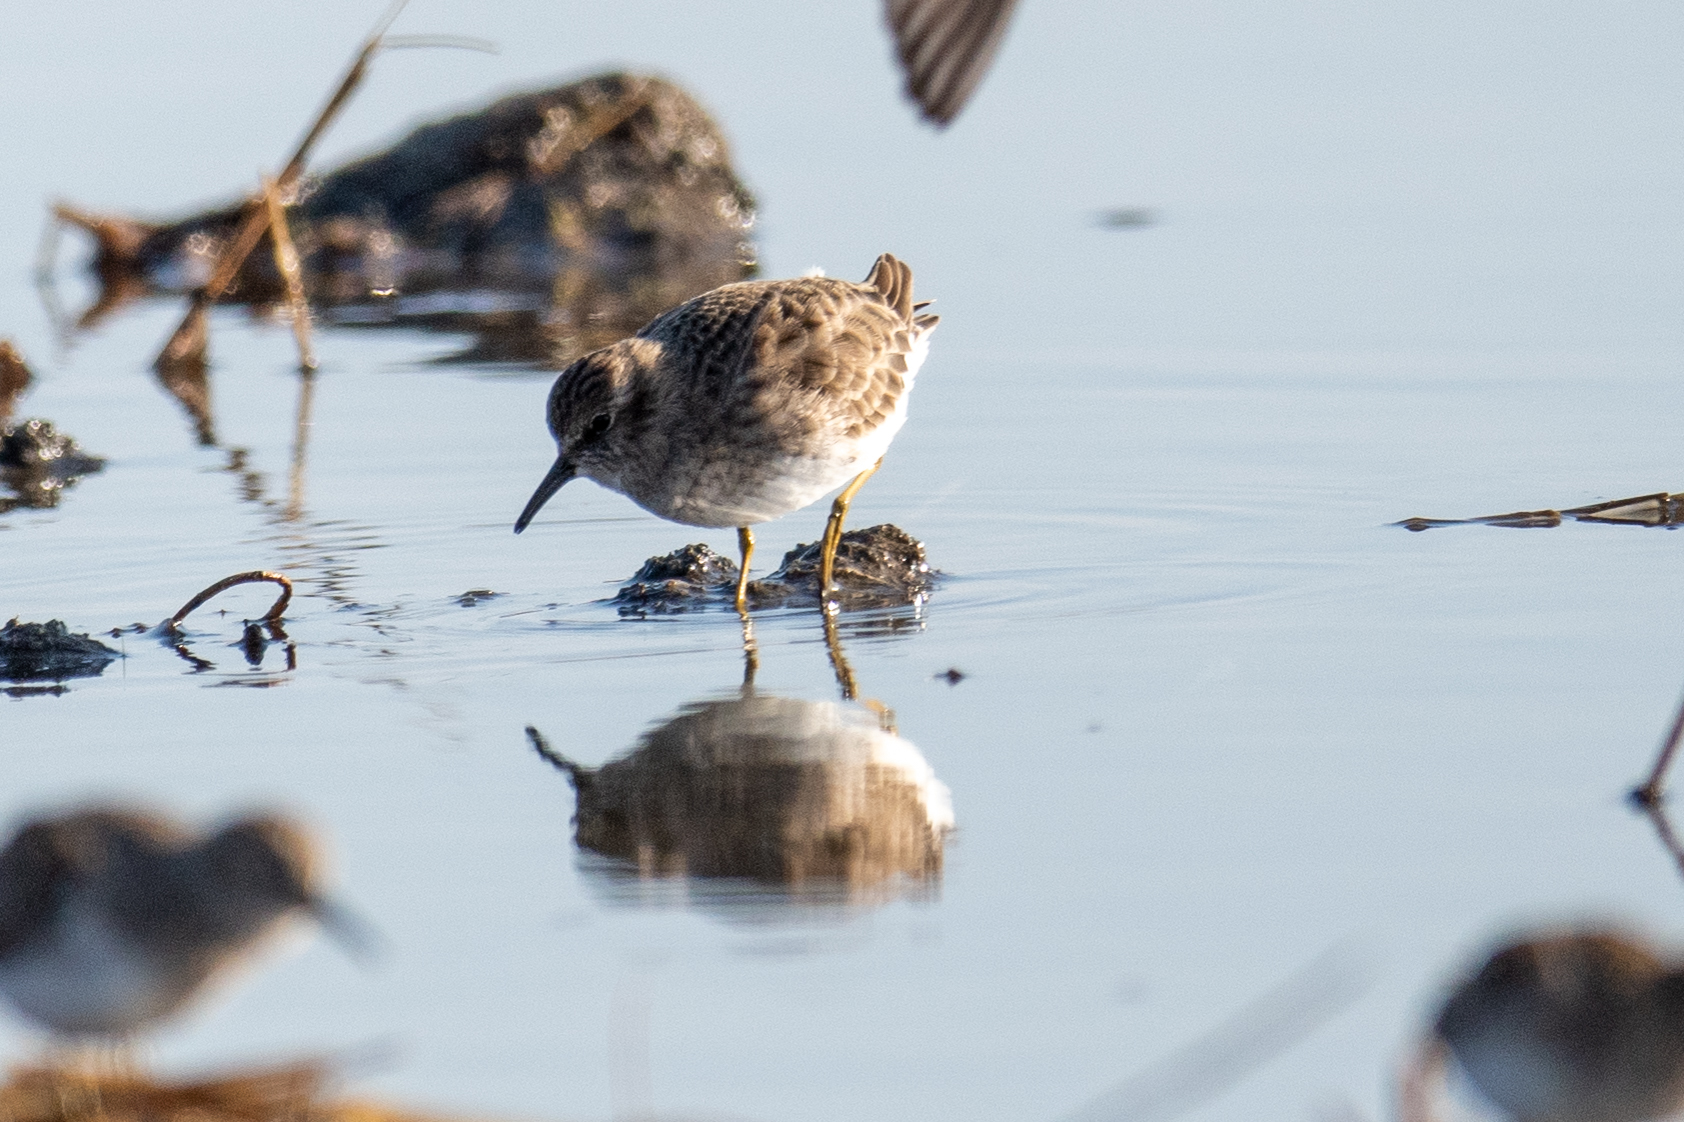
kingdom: Animalia
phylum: Chordata
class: Aves
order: Charadriiformes
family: Scolopacidae
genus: Calidris
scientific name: Calidris minutilla
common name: Least sandpiper
